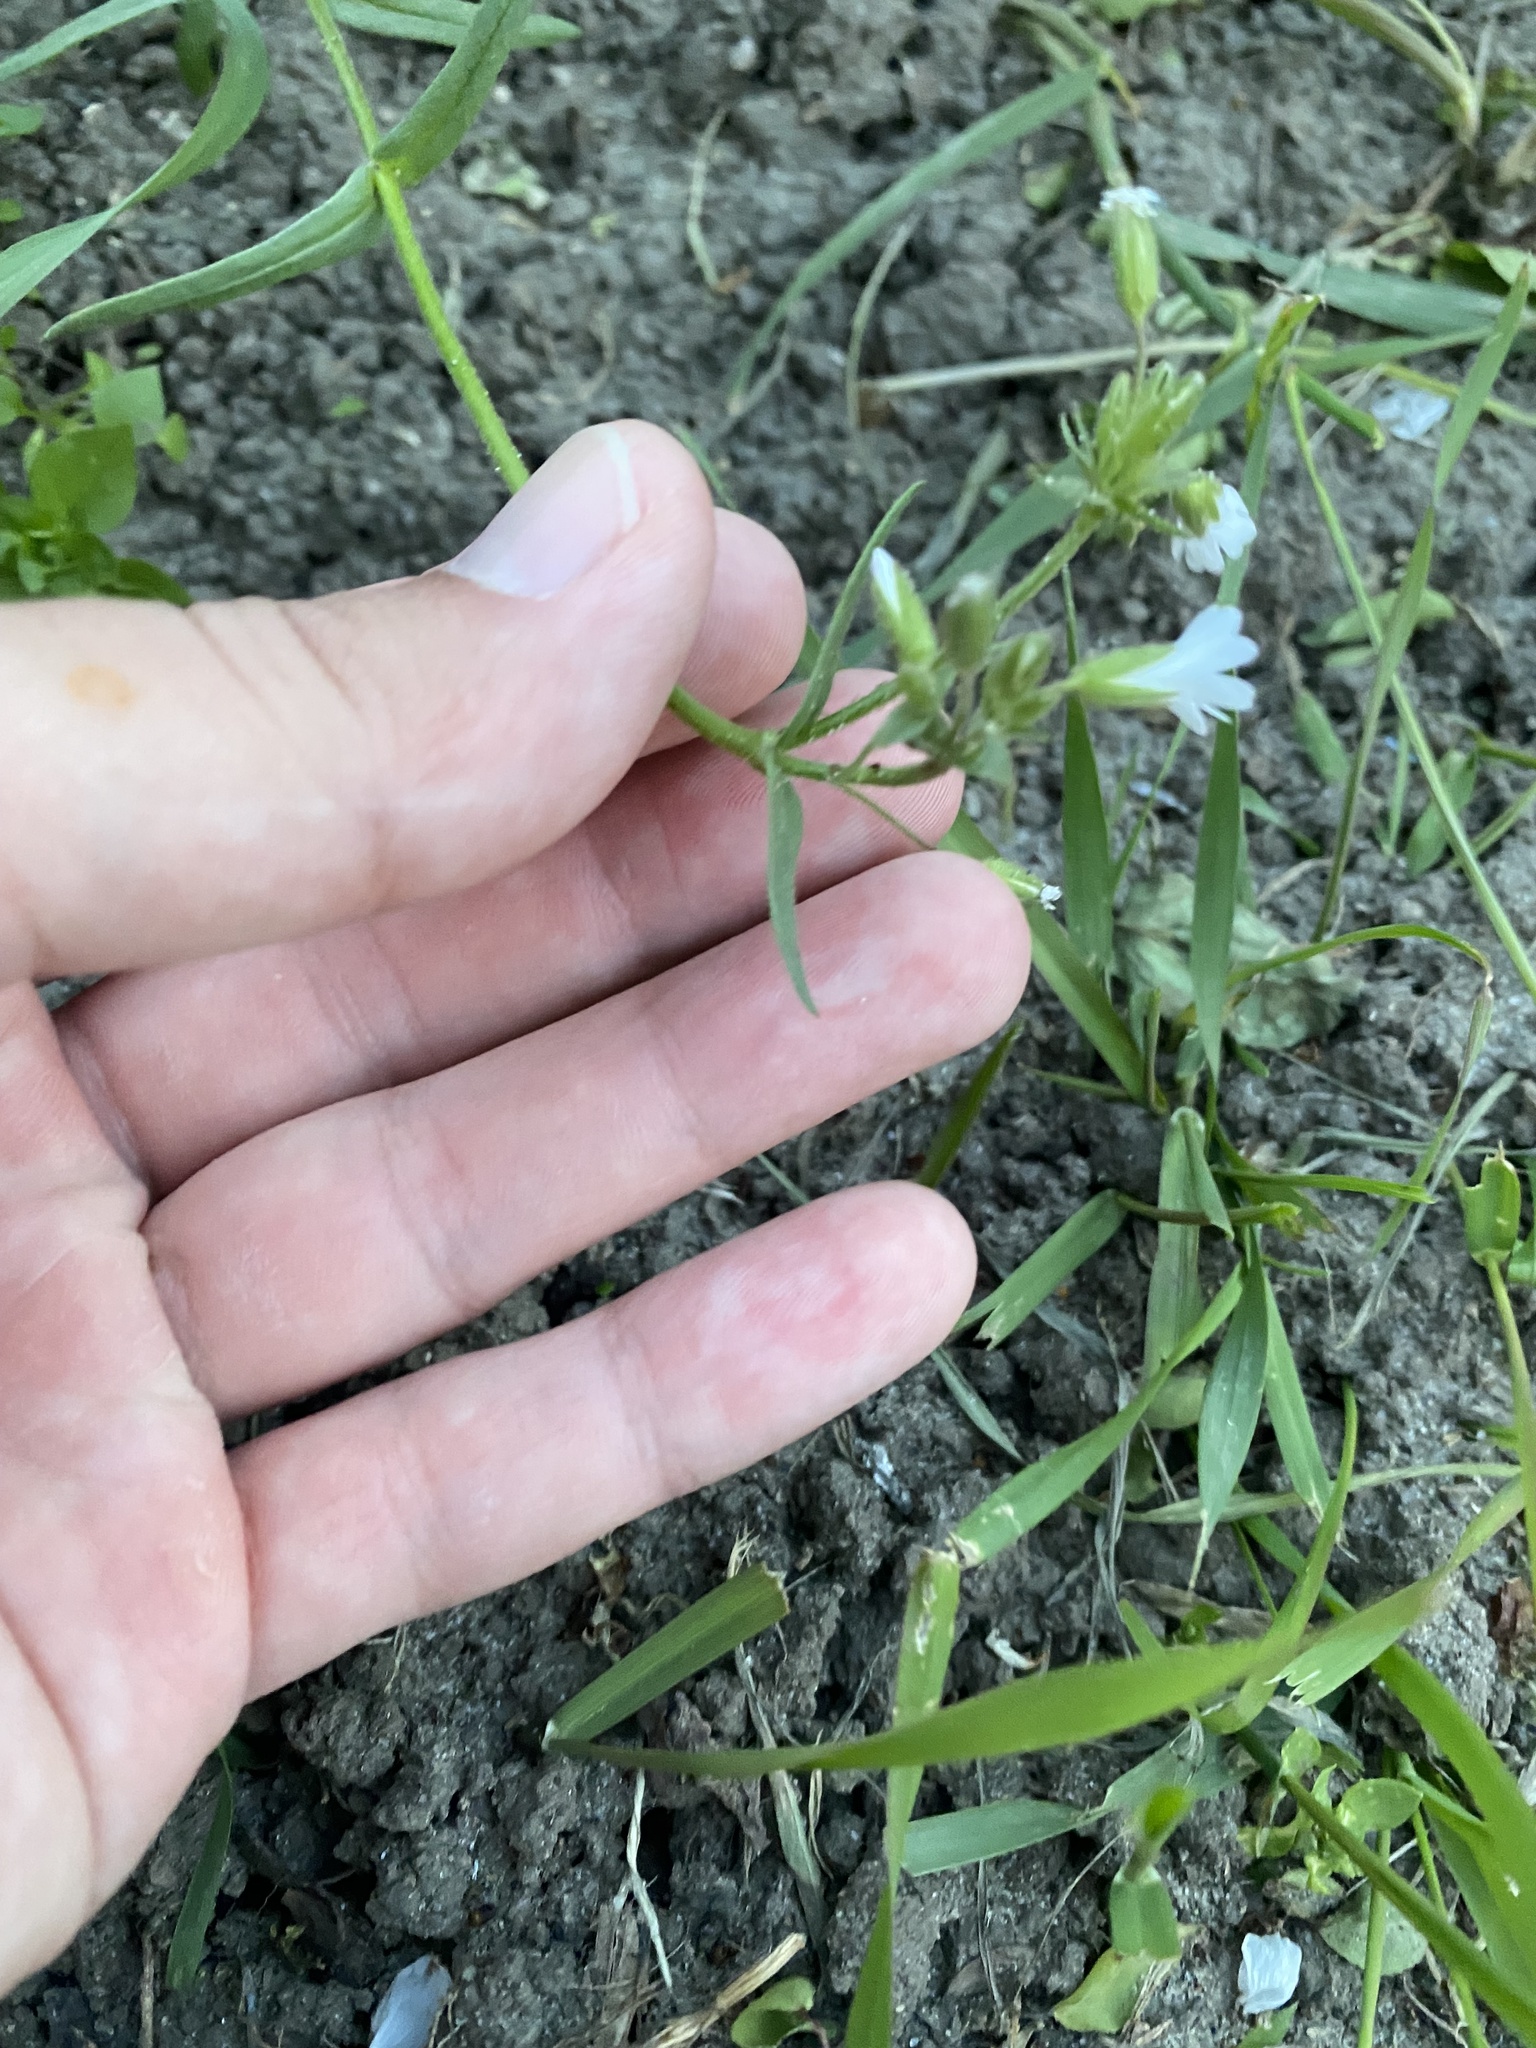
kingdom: Plantae
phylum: Tracheophyta
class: Magnoliopsida
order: Caryophyllales
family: Caryophyllaceae
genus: Dichodon
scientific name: Dichodon viscidum
